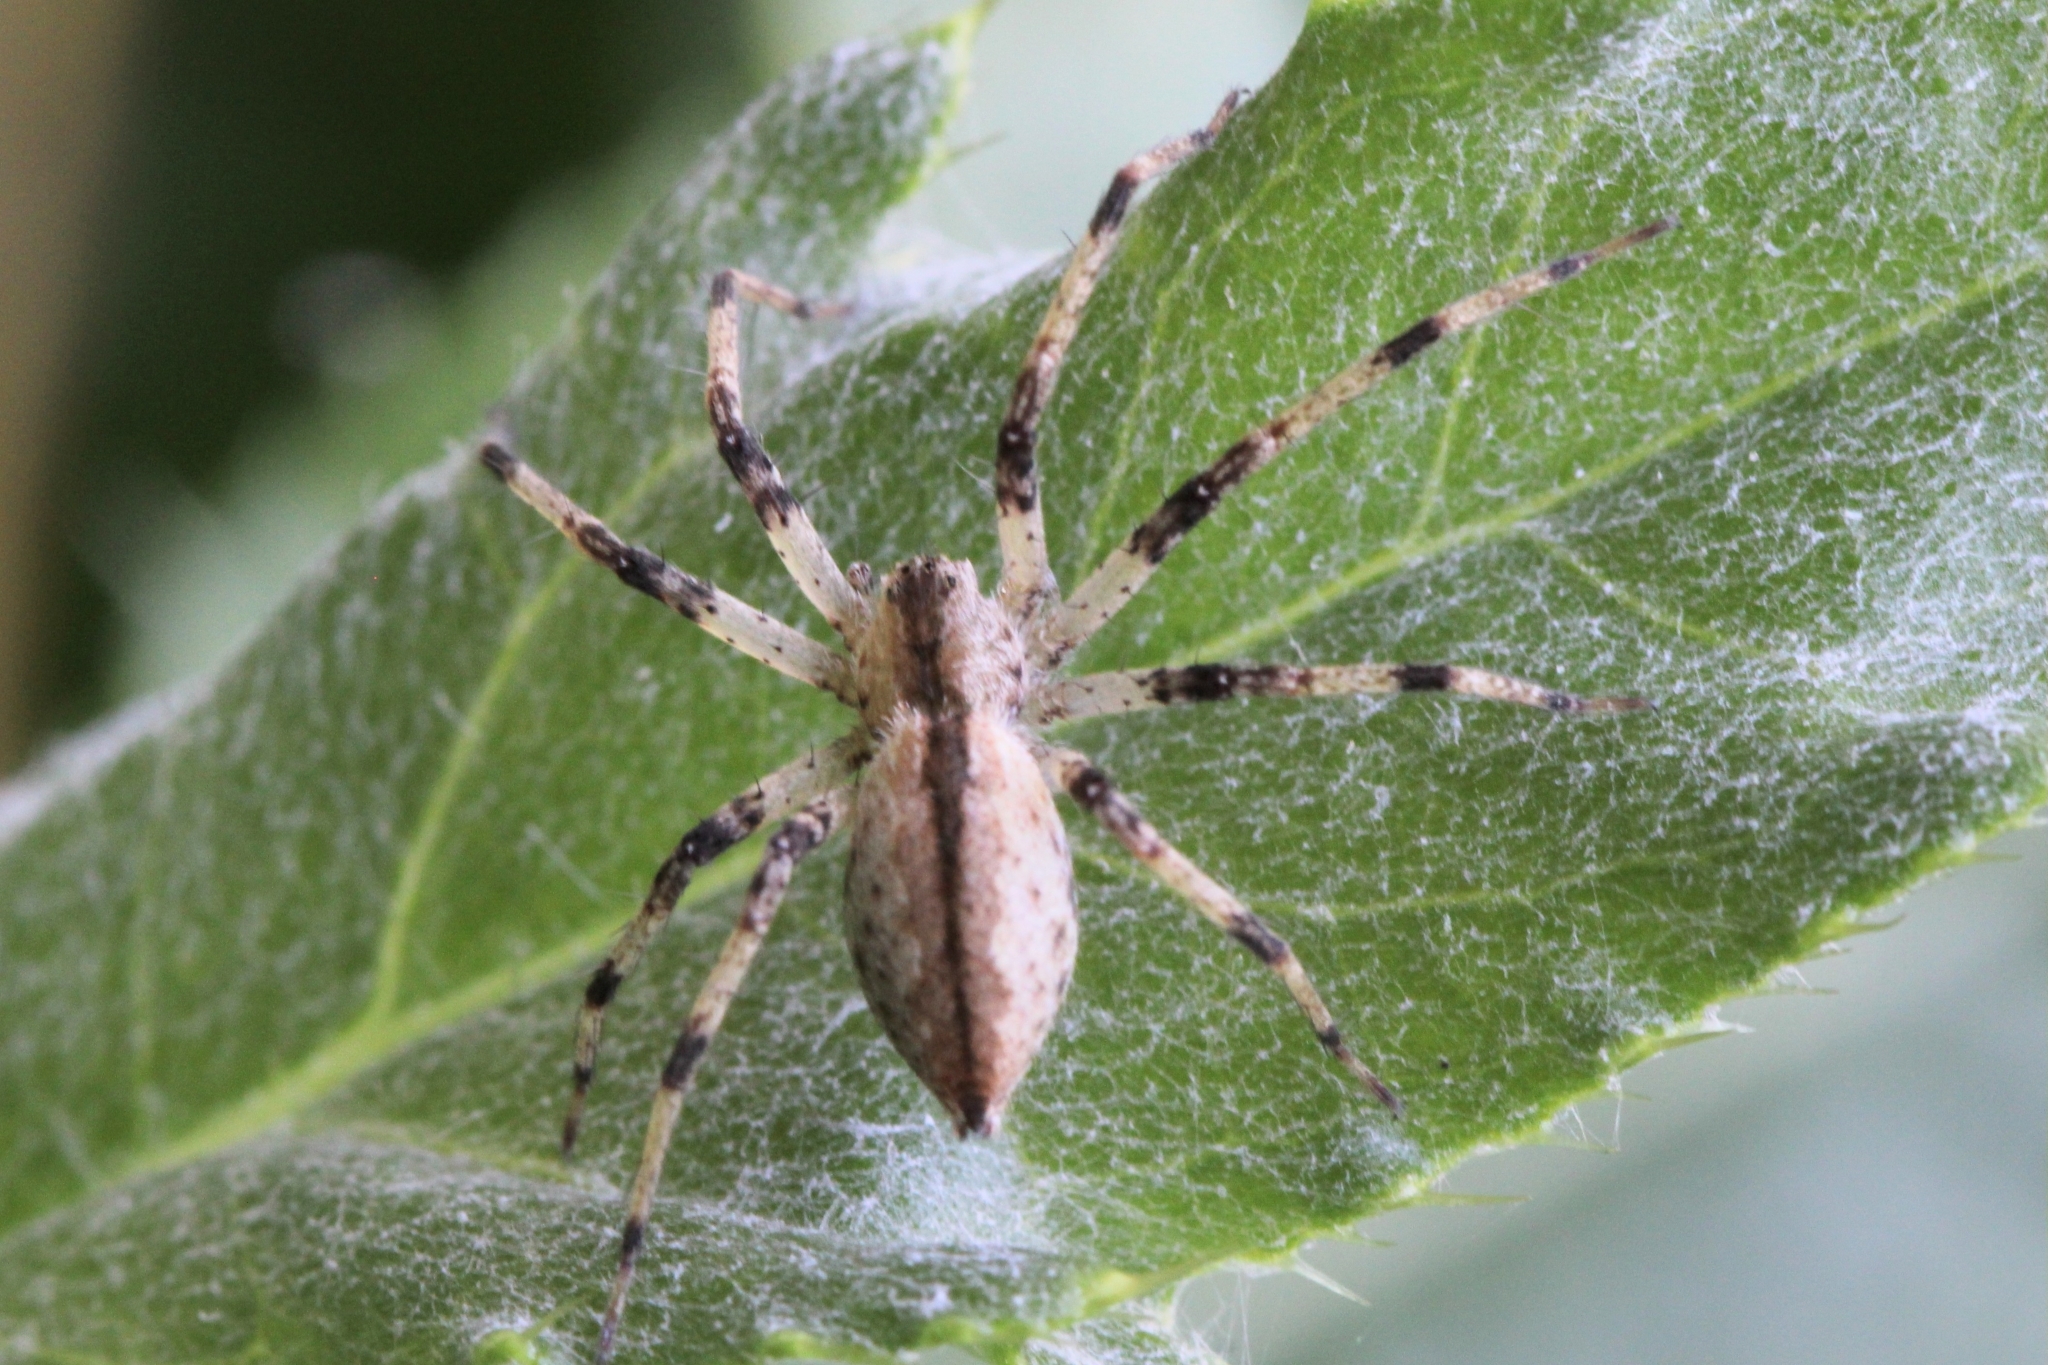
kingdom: Animalia
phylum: Arthropoda
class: Arachnida
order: Araneae
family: Pisauridae
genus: Pisaurina
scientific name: Pisaurina mira
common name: American nursery web spider
